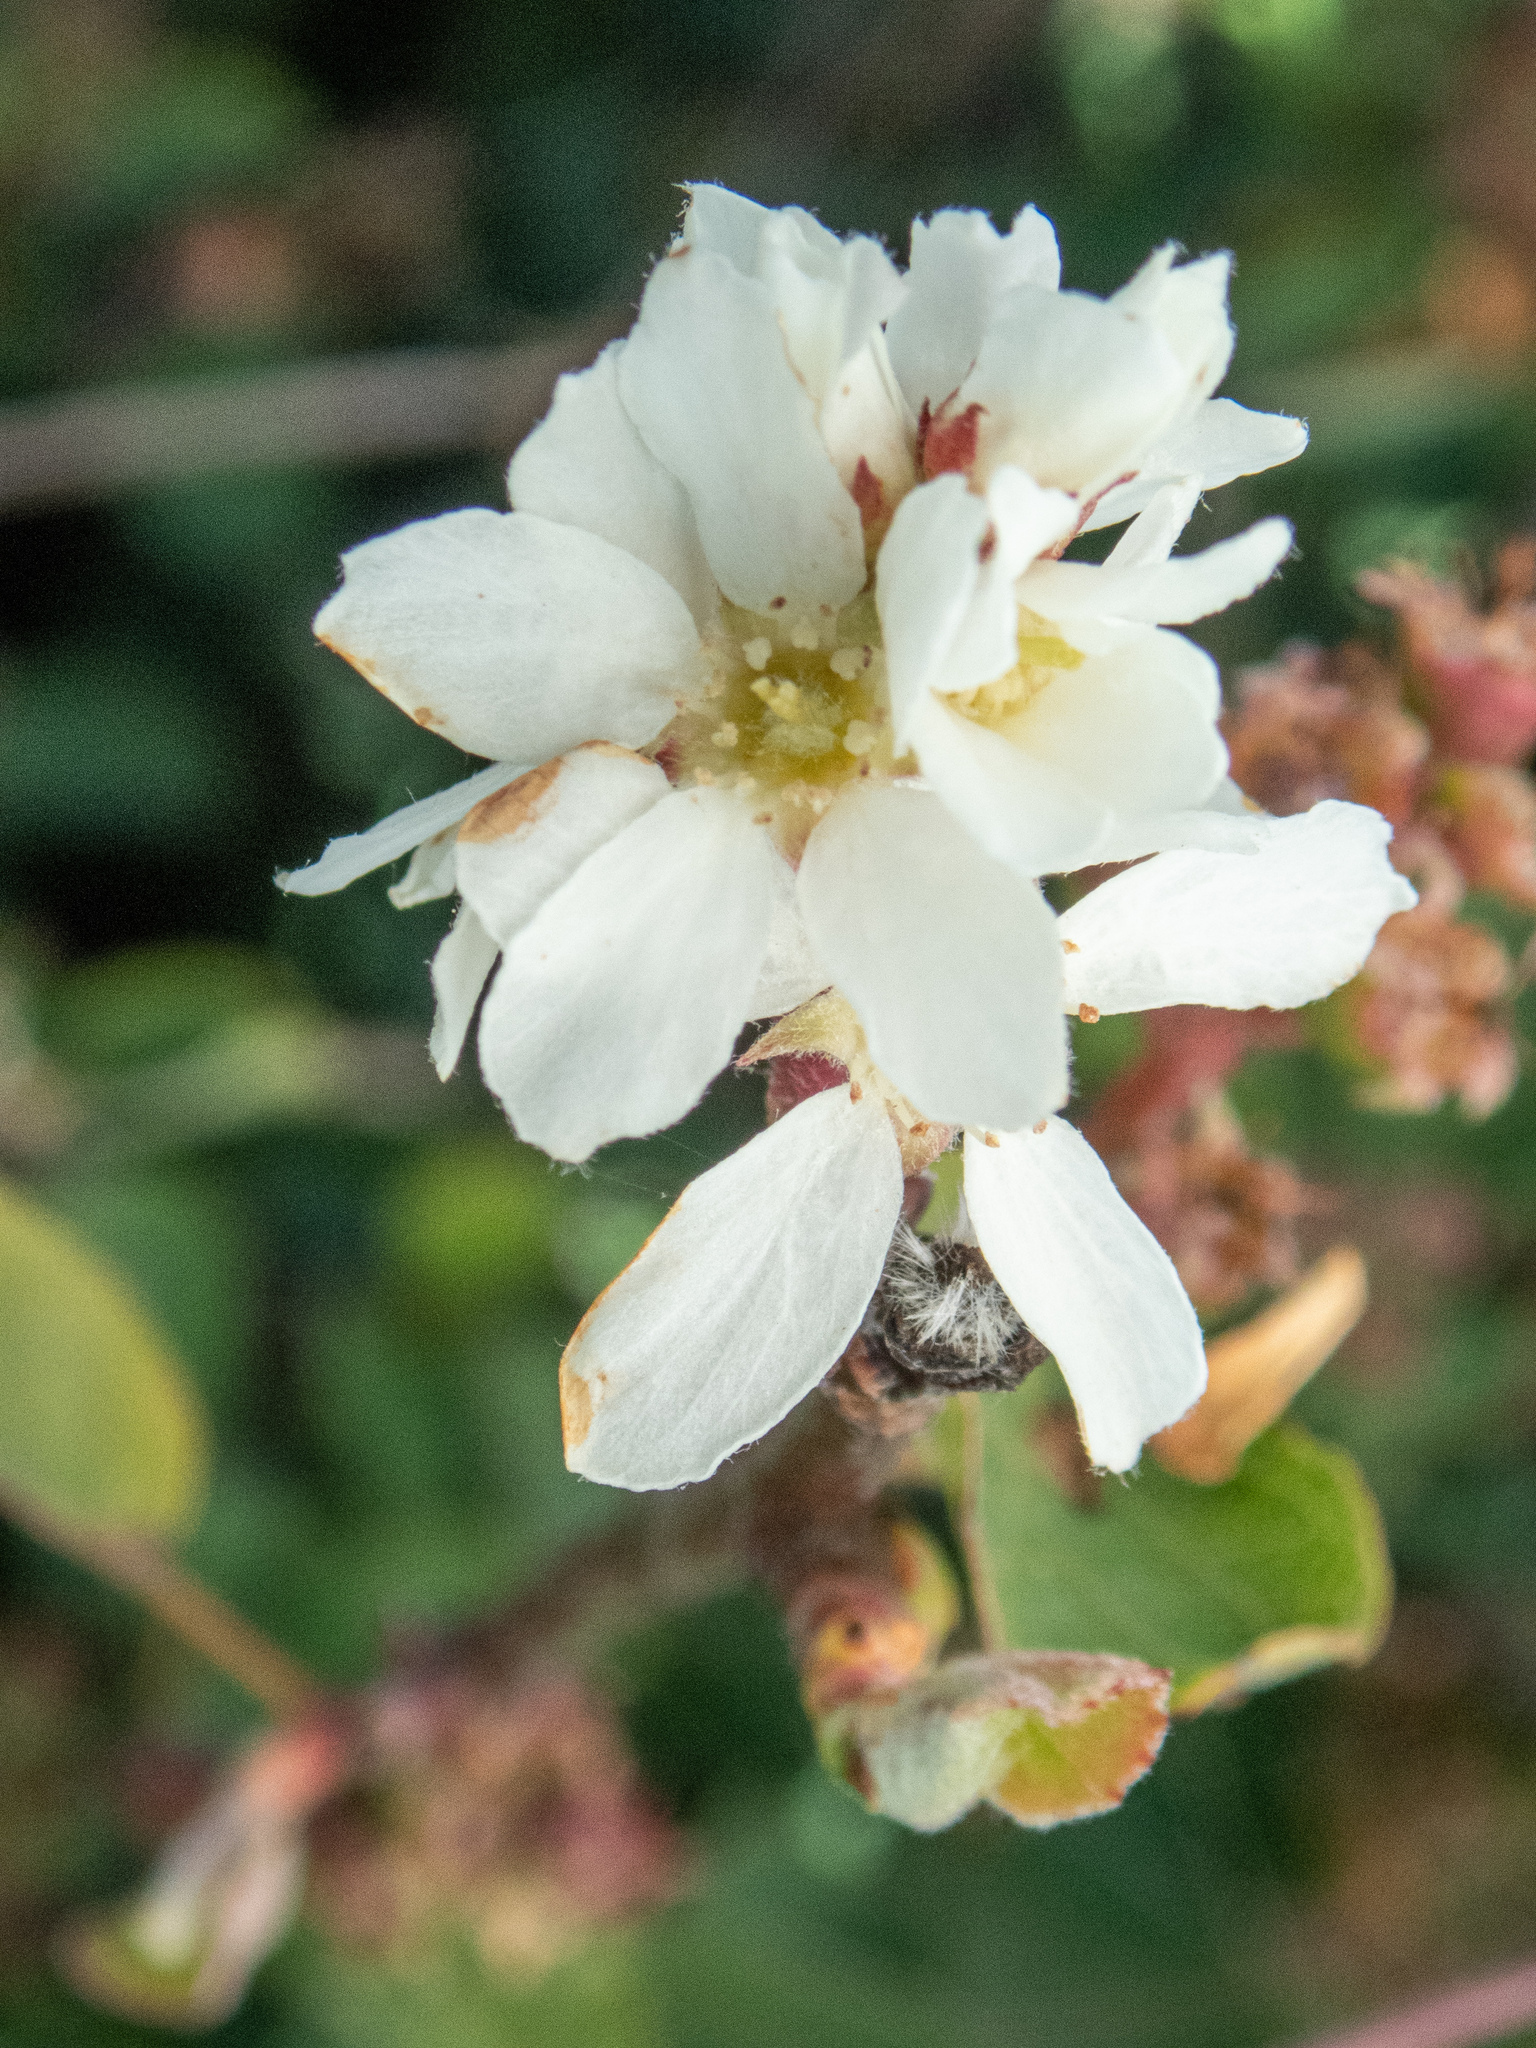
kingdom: Plantae
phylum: Tracheophyta
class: Magnoliopsida
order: Rosales
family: Rosaceae
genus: Amelanchier
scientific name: Amelanchier utahensis
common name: Utah serviceberry
